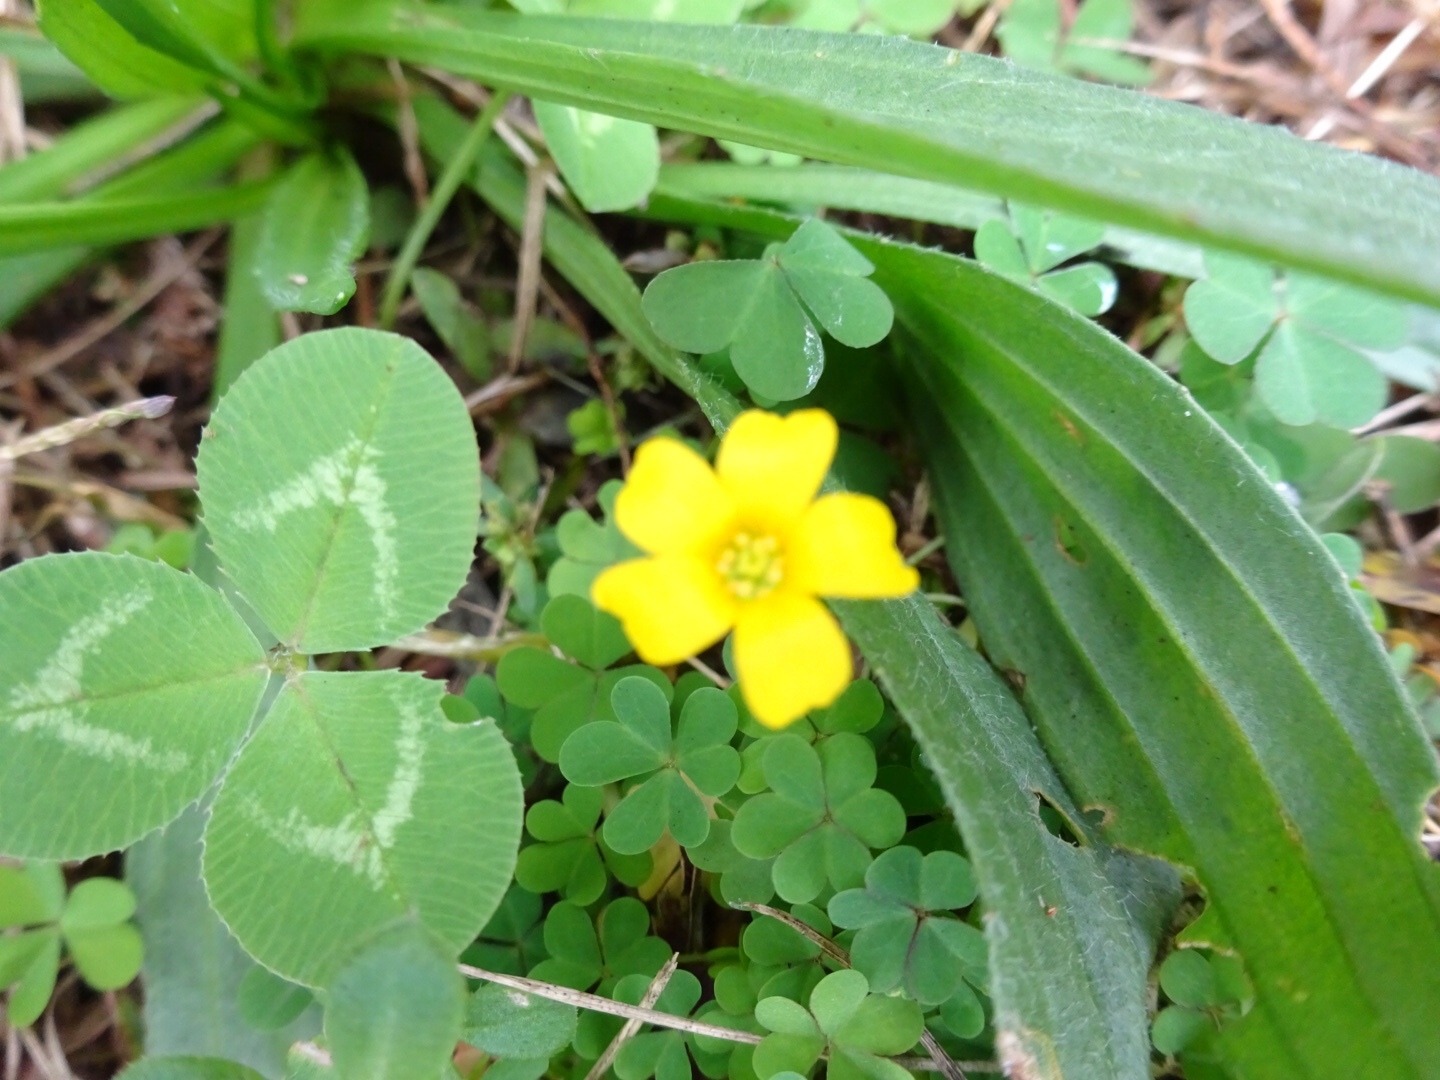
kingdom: Plantae
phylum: Tracheophyta
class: Magnoliopsida
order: Oxalidales
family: Oxalidaceae
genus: Oxalis
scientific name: Oxalis corniculata
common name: Procumbent yellow-sorrel
